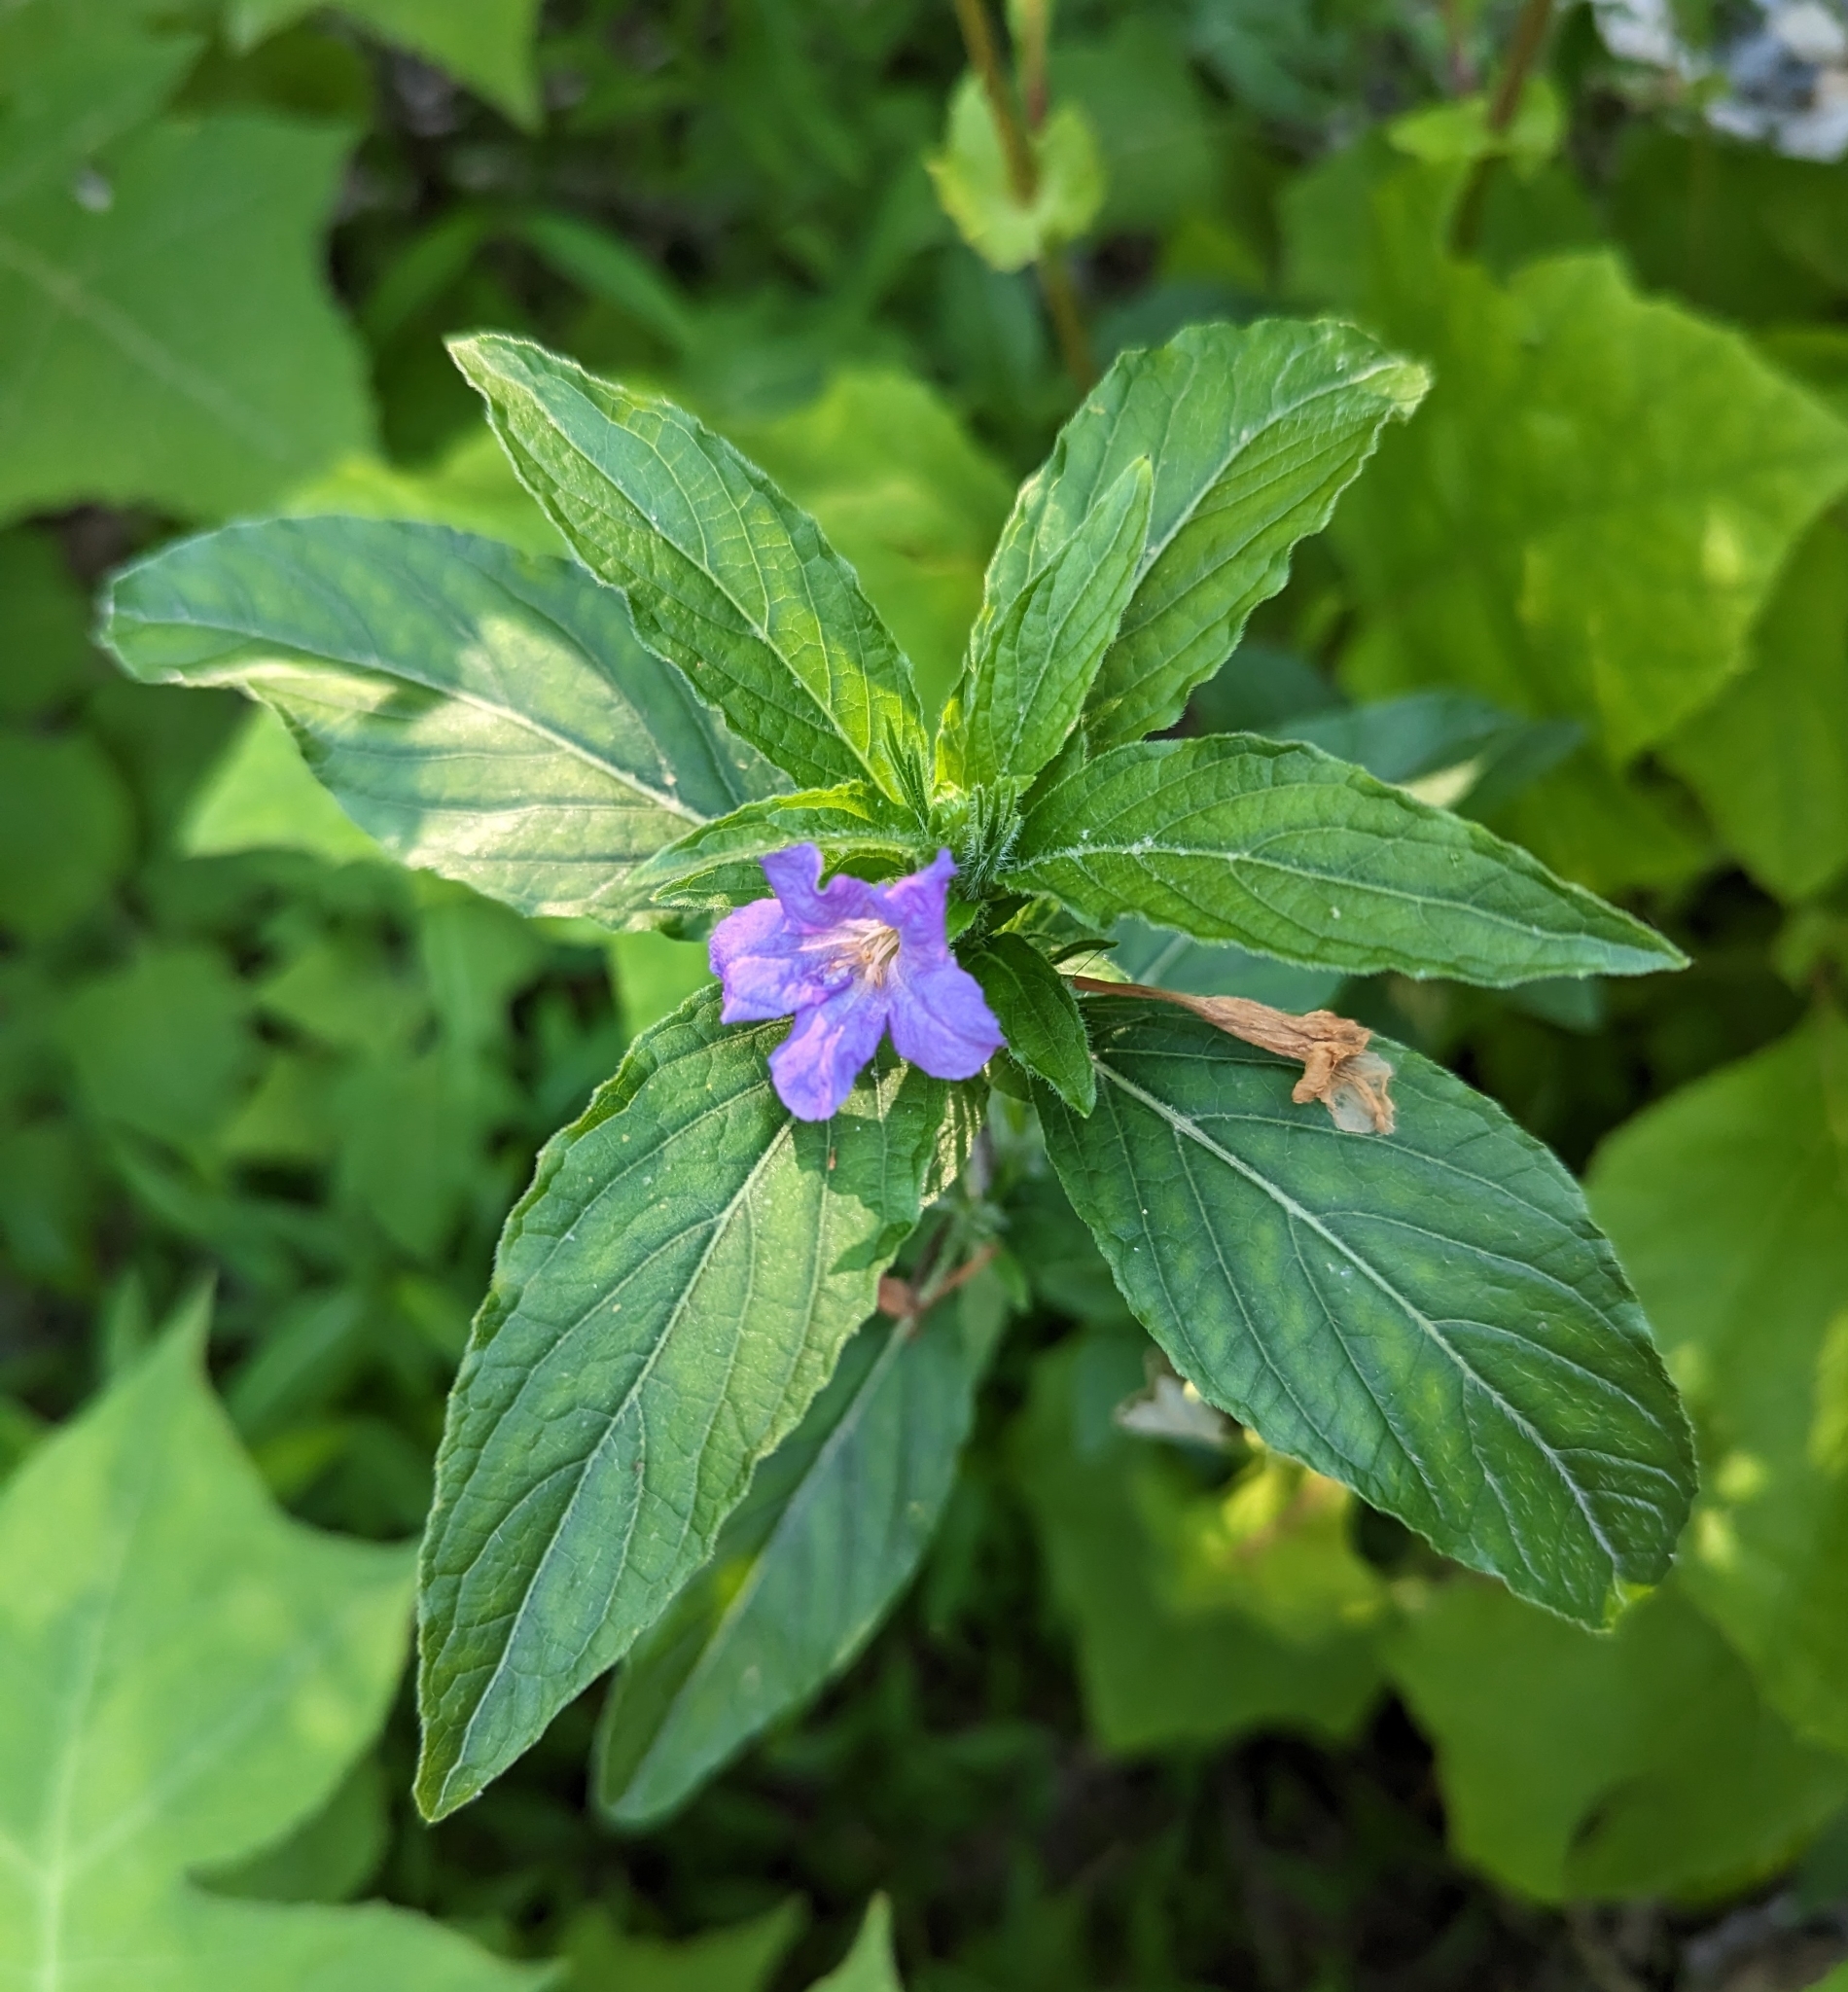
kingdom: Plantae
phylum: Tracheophyta
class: Magnoliopsida
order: Lamiales
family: Acanthaceae
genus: Ruellia
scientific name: Ruellia caroliniensis
